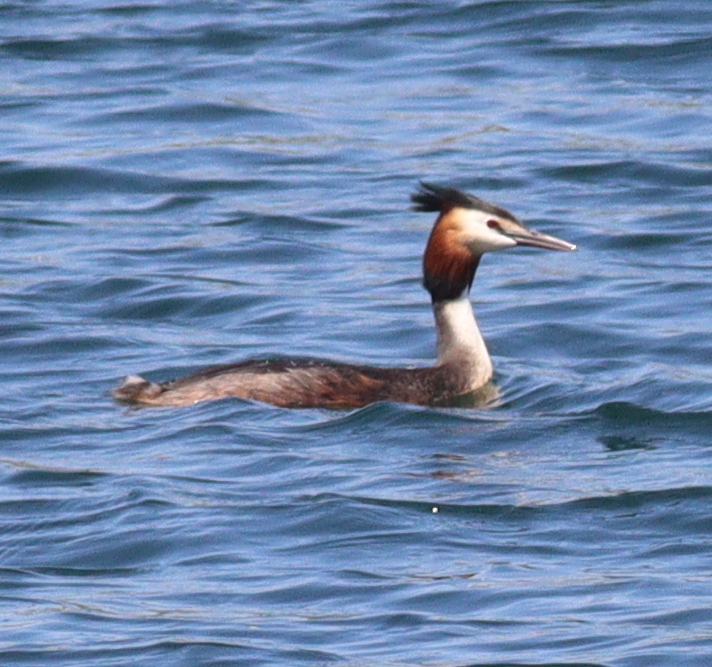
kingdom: Animalia
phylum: Chordata
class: Aves
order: Podicipediformes
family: Podicipedidae
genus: Podiceps
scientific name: Podiceps cristatus
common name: Great crested grebe
